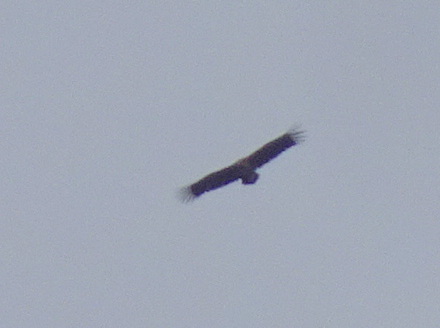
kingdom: Animalia
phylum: Chordata
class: Aves
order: Accipitriformes
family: Accipitridae
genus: Aegypius
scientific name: Aegypius monachus
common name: Cinereous vulture
